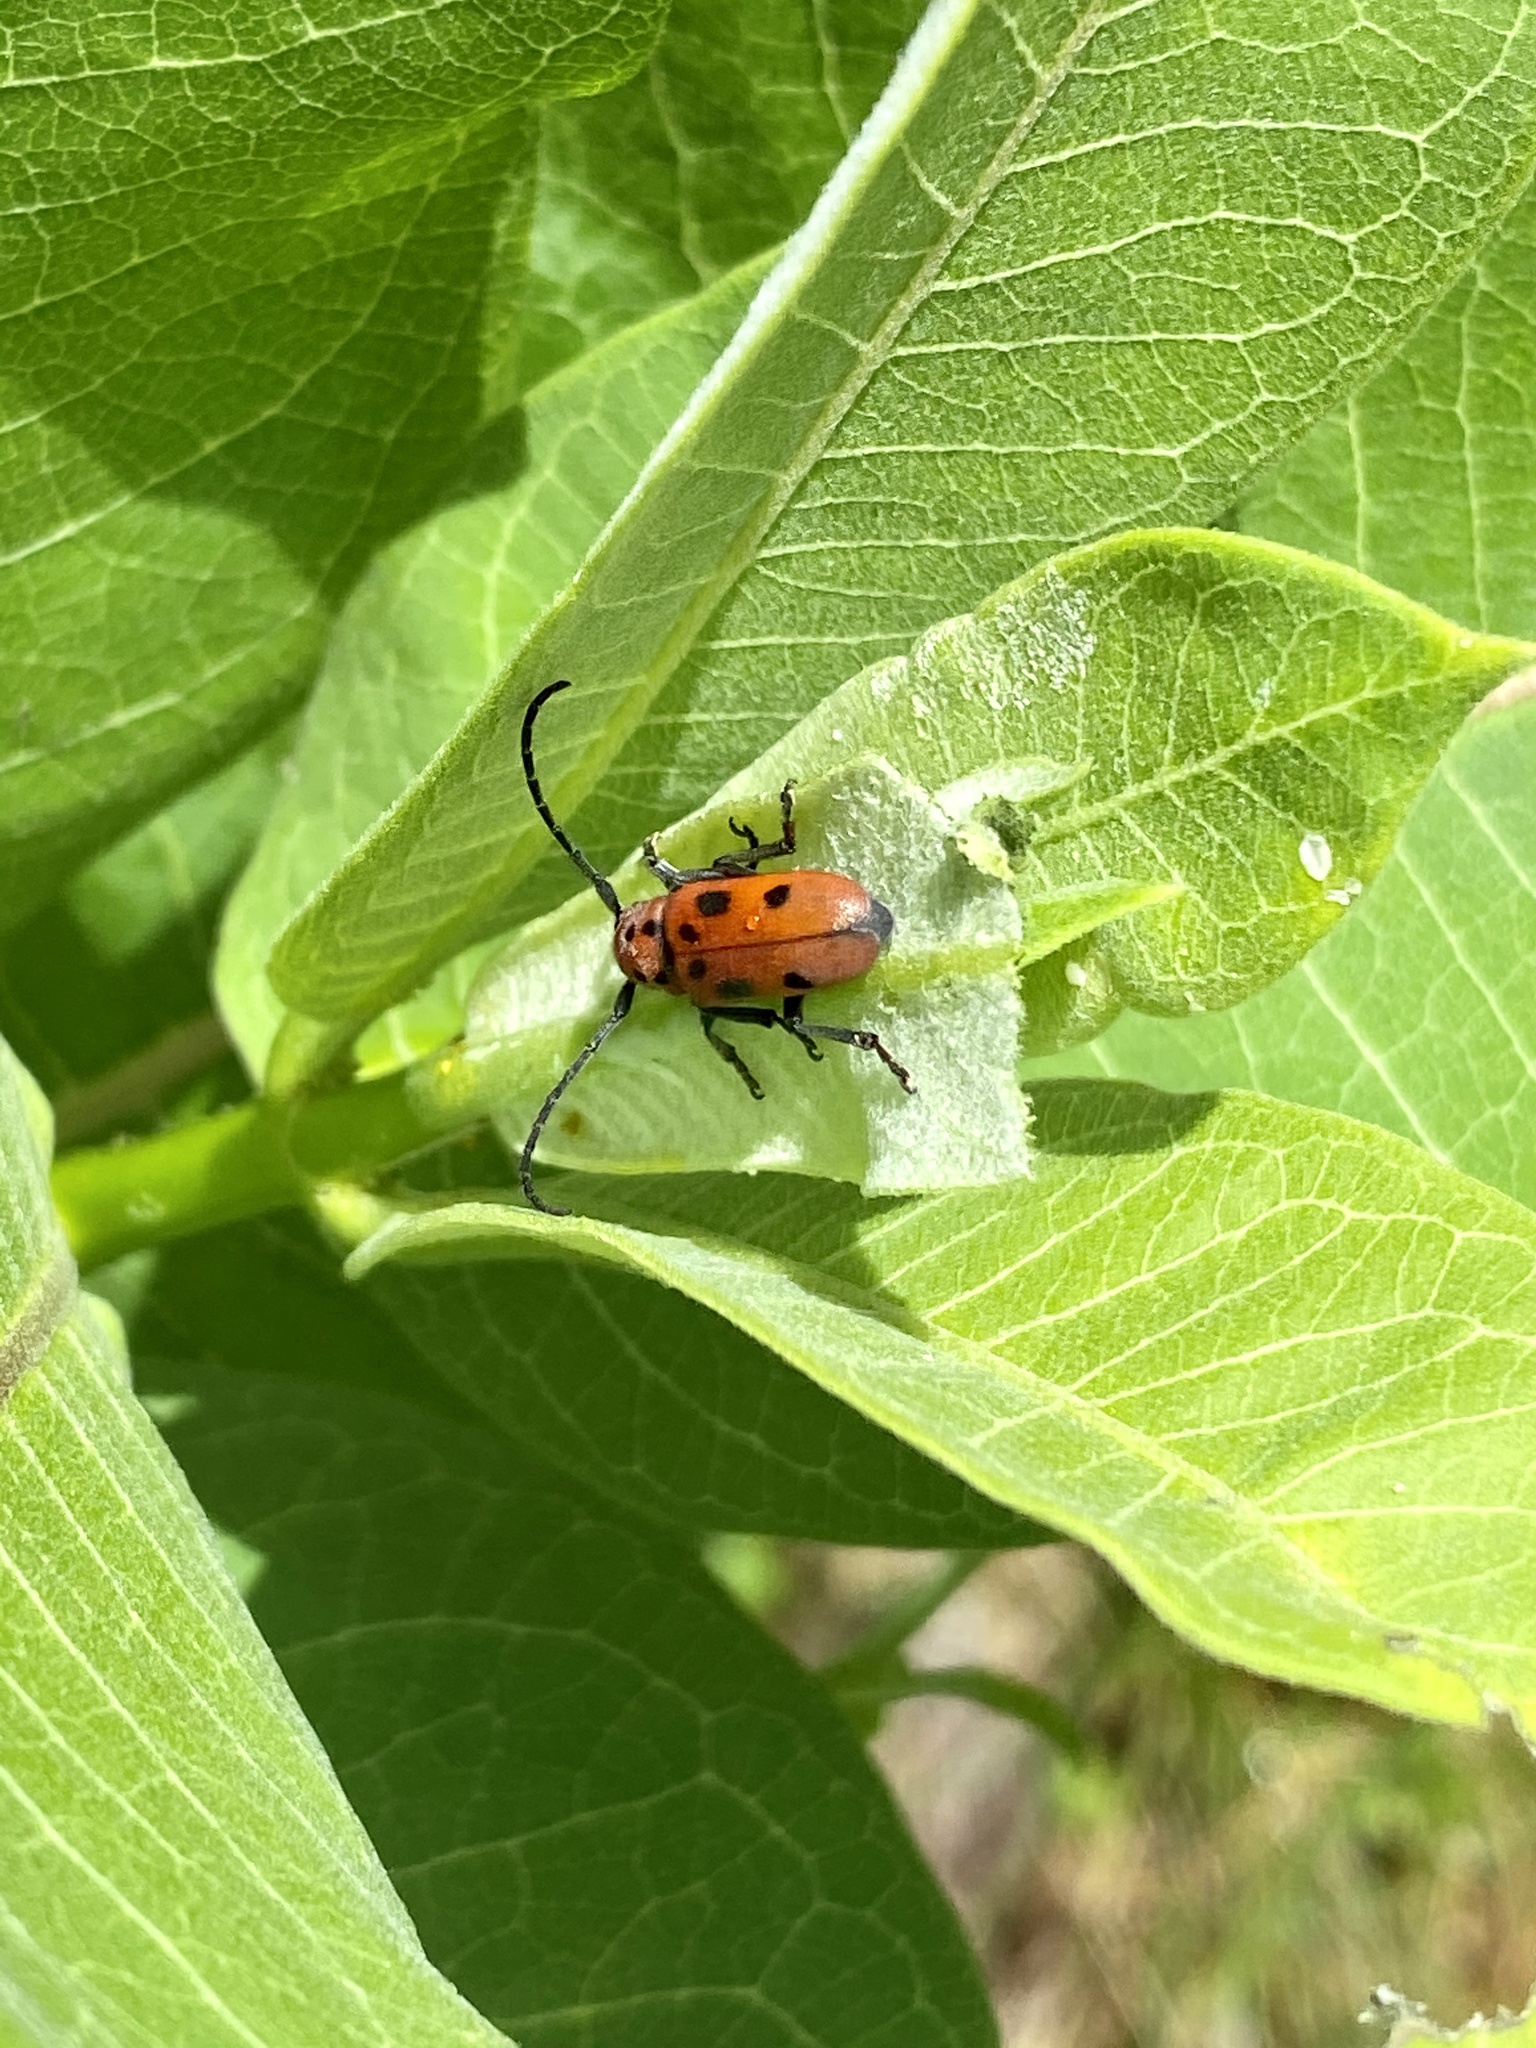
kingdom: Animalia
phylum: Arthropoda
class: Insecta
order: Coleoptera
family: Cerambycidae
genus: Tetraopes
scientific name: Tetraopes tetrophthalmus
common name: Red milkweed beetle
